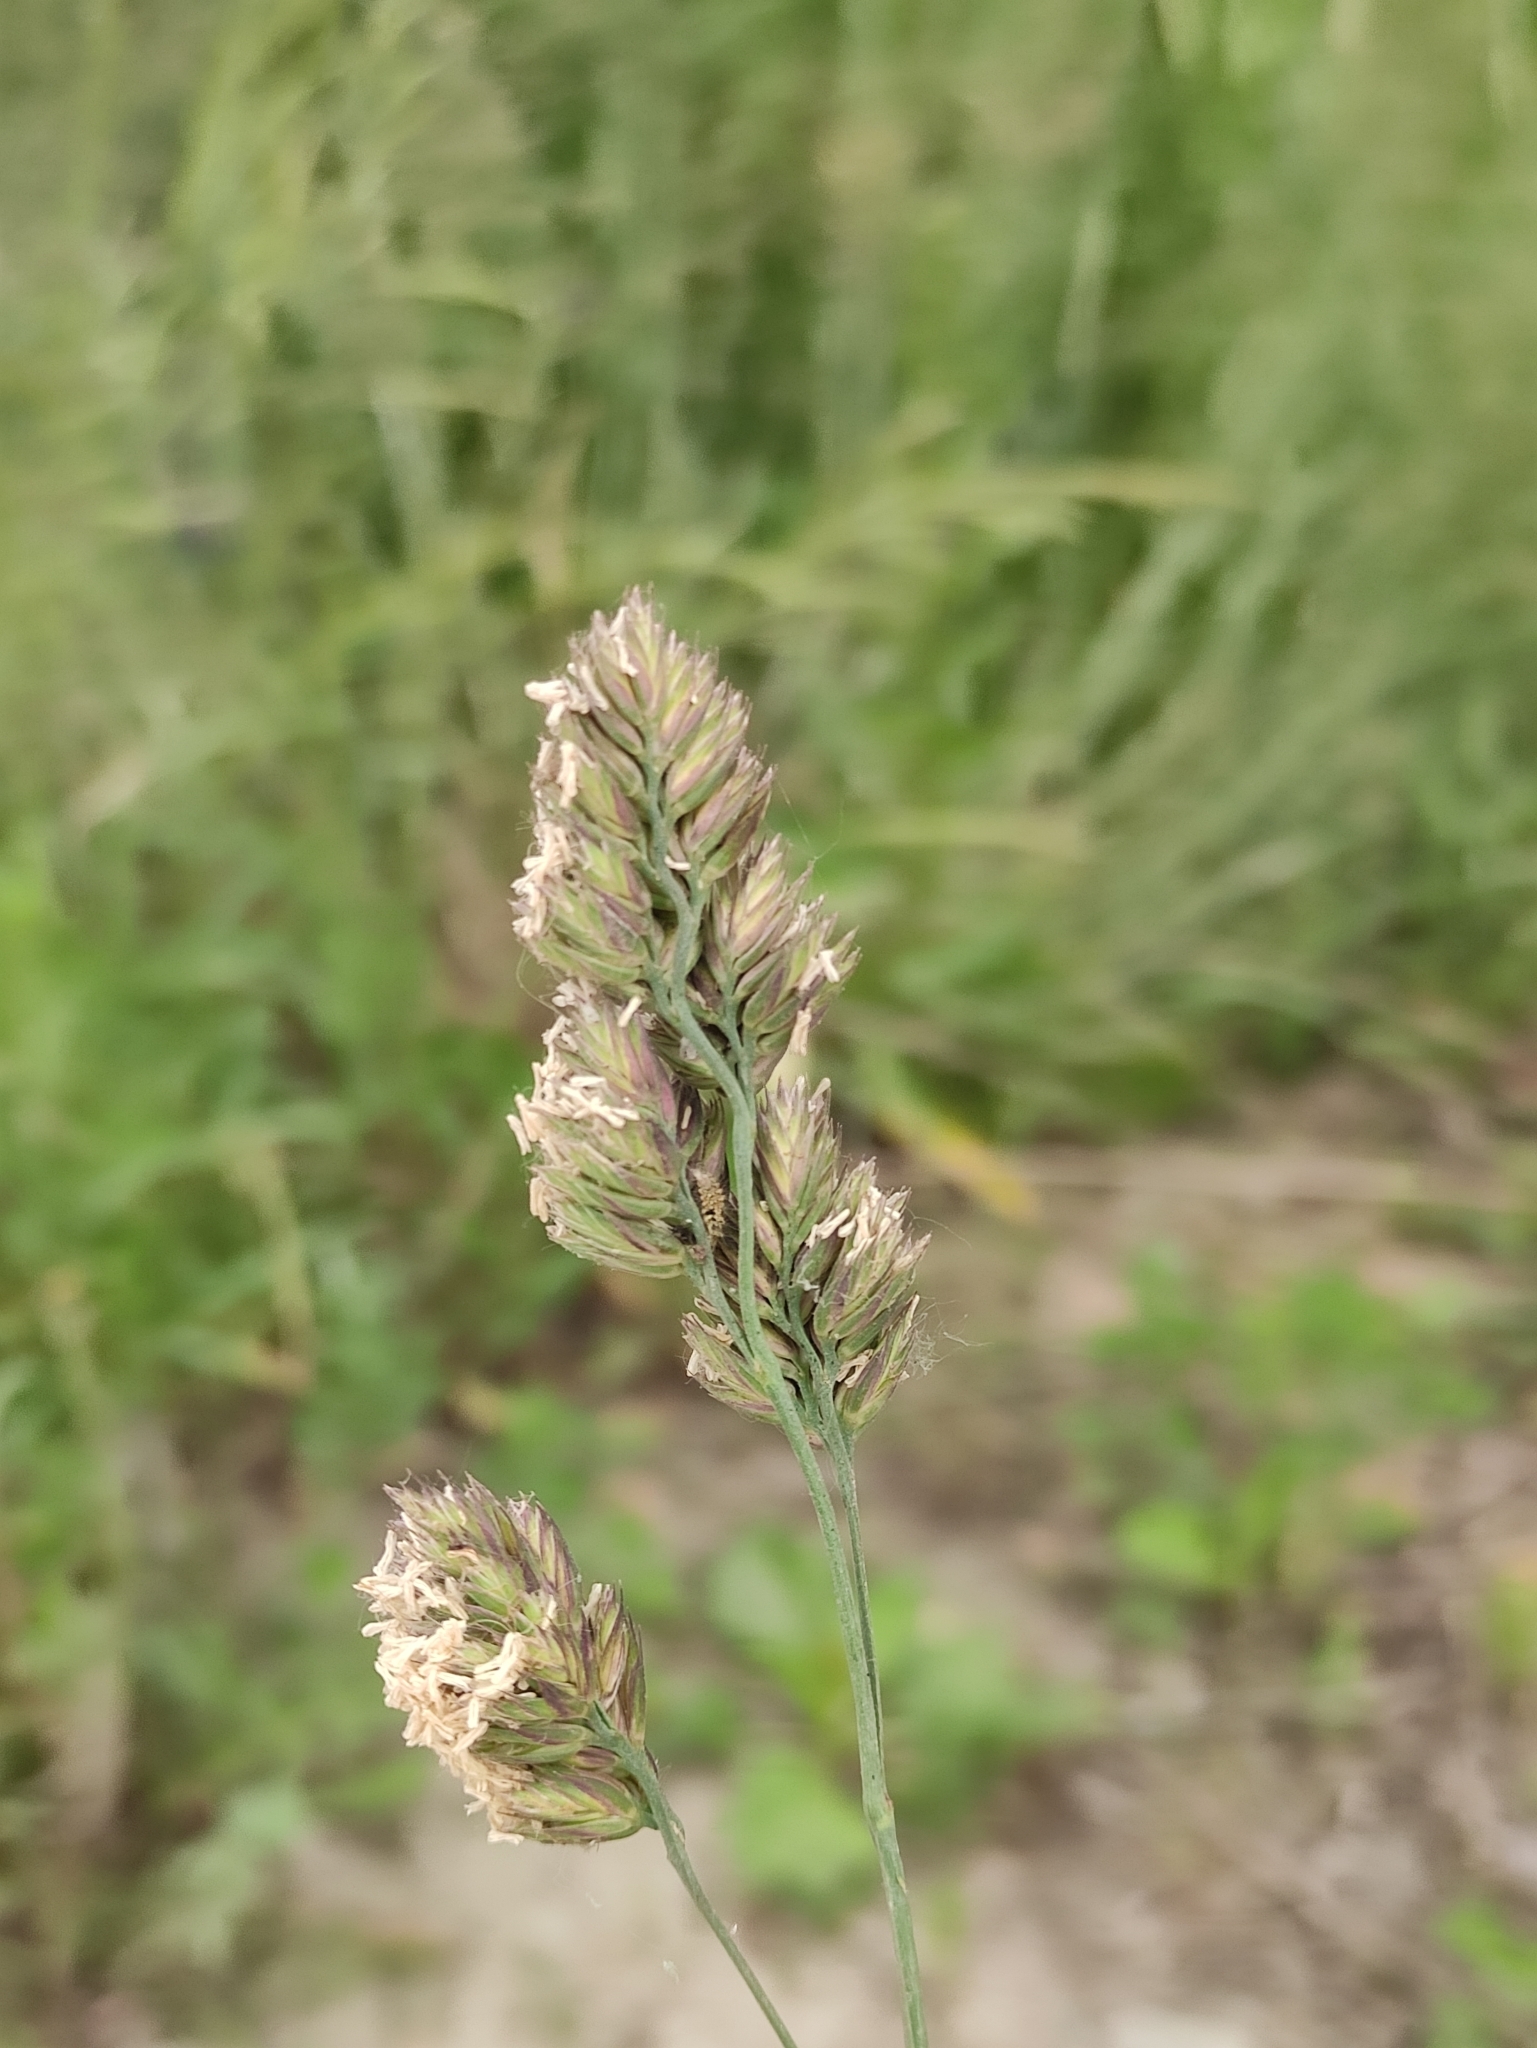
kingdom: Plantae
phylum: Tracheophyta
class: Liliopsida
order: Poales
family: Poaceae
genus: Dactylis
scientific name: Dactylis glomerata
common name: Orchardgrass
